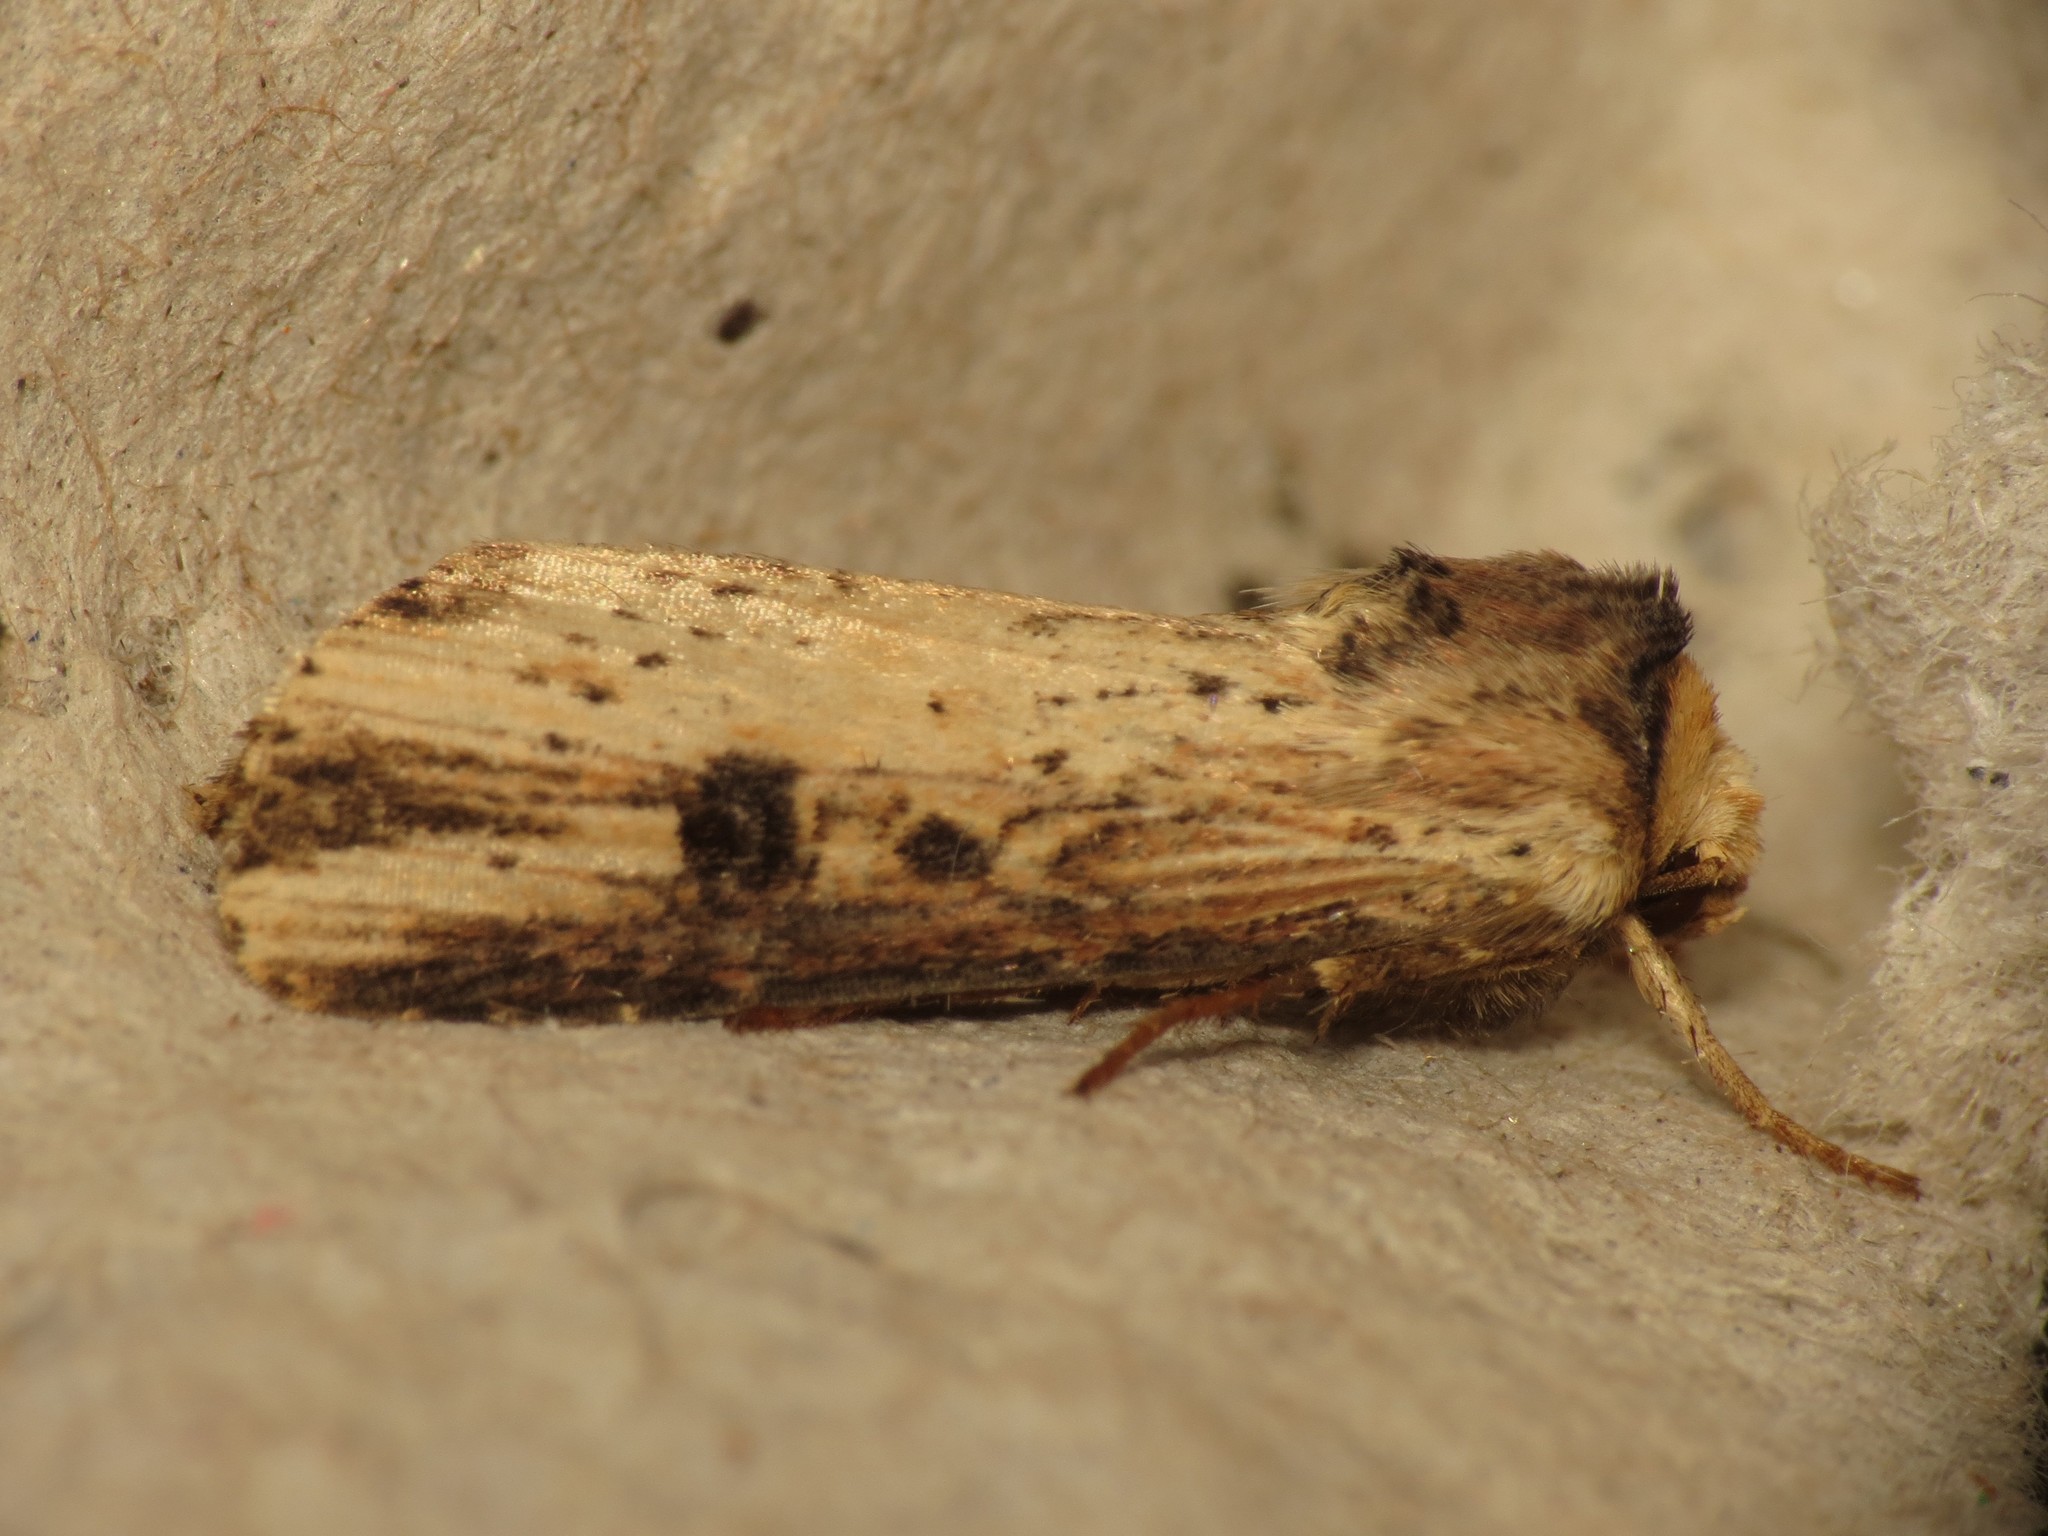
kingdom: Animalia
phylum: Arthropoda
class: Insecta
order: Lepidoptera
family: Noctuidae
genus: Axylia
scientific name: Axylia putris
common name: Flame
